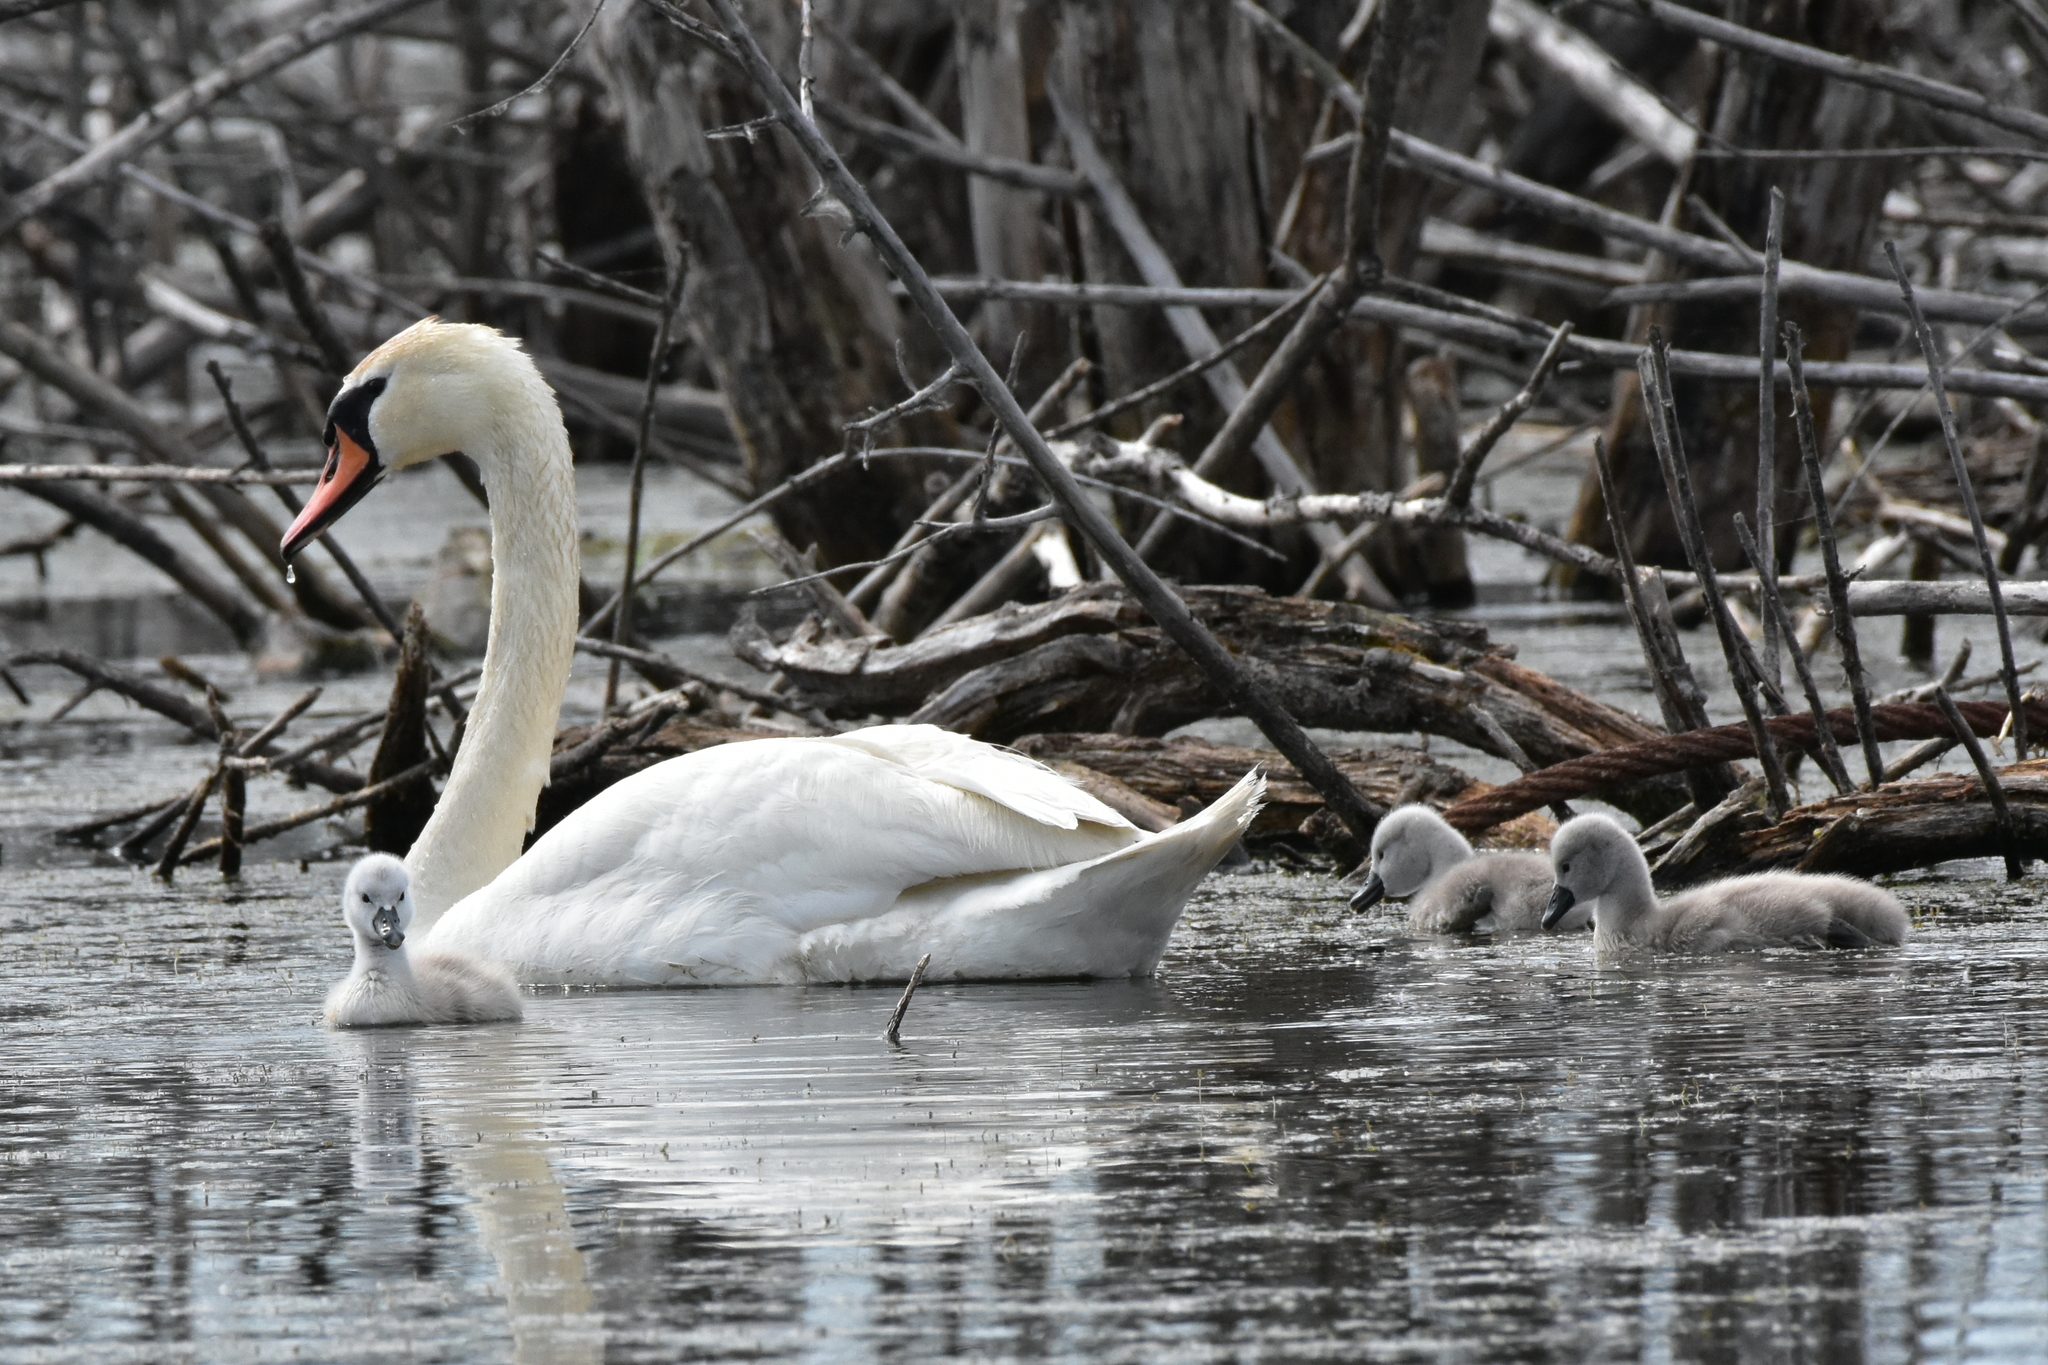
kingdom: Animalia
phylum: Chordata
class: Aves
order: Anseriformes
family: Anatidae
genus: Cygnus
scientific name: Cygnus olor
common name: Mute swan
